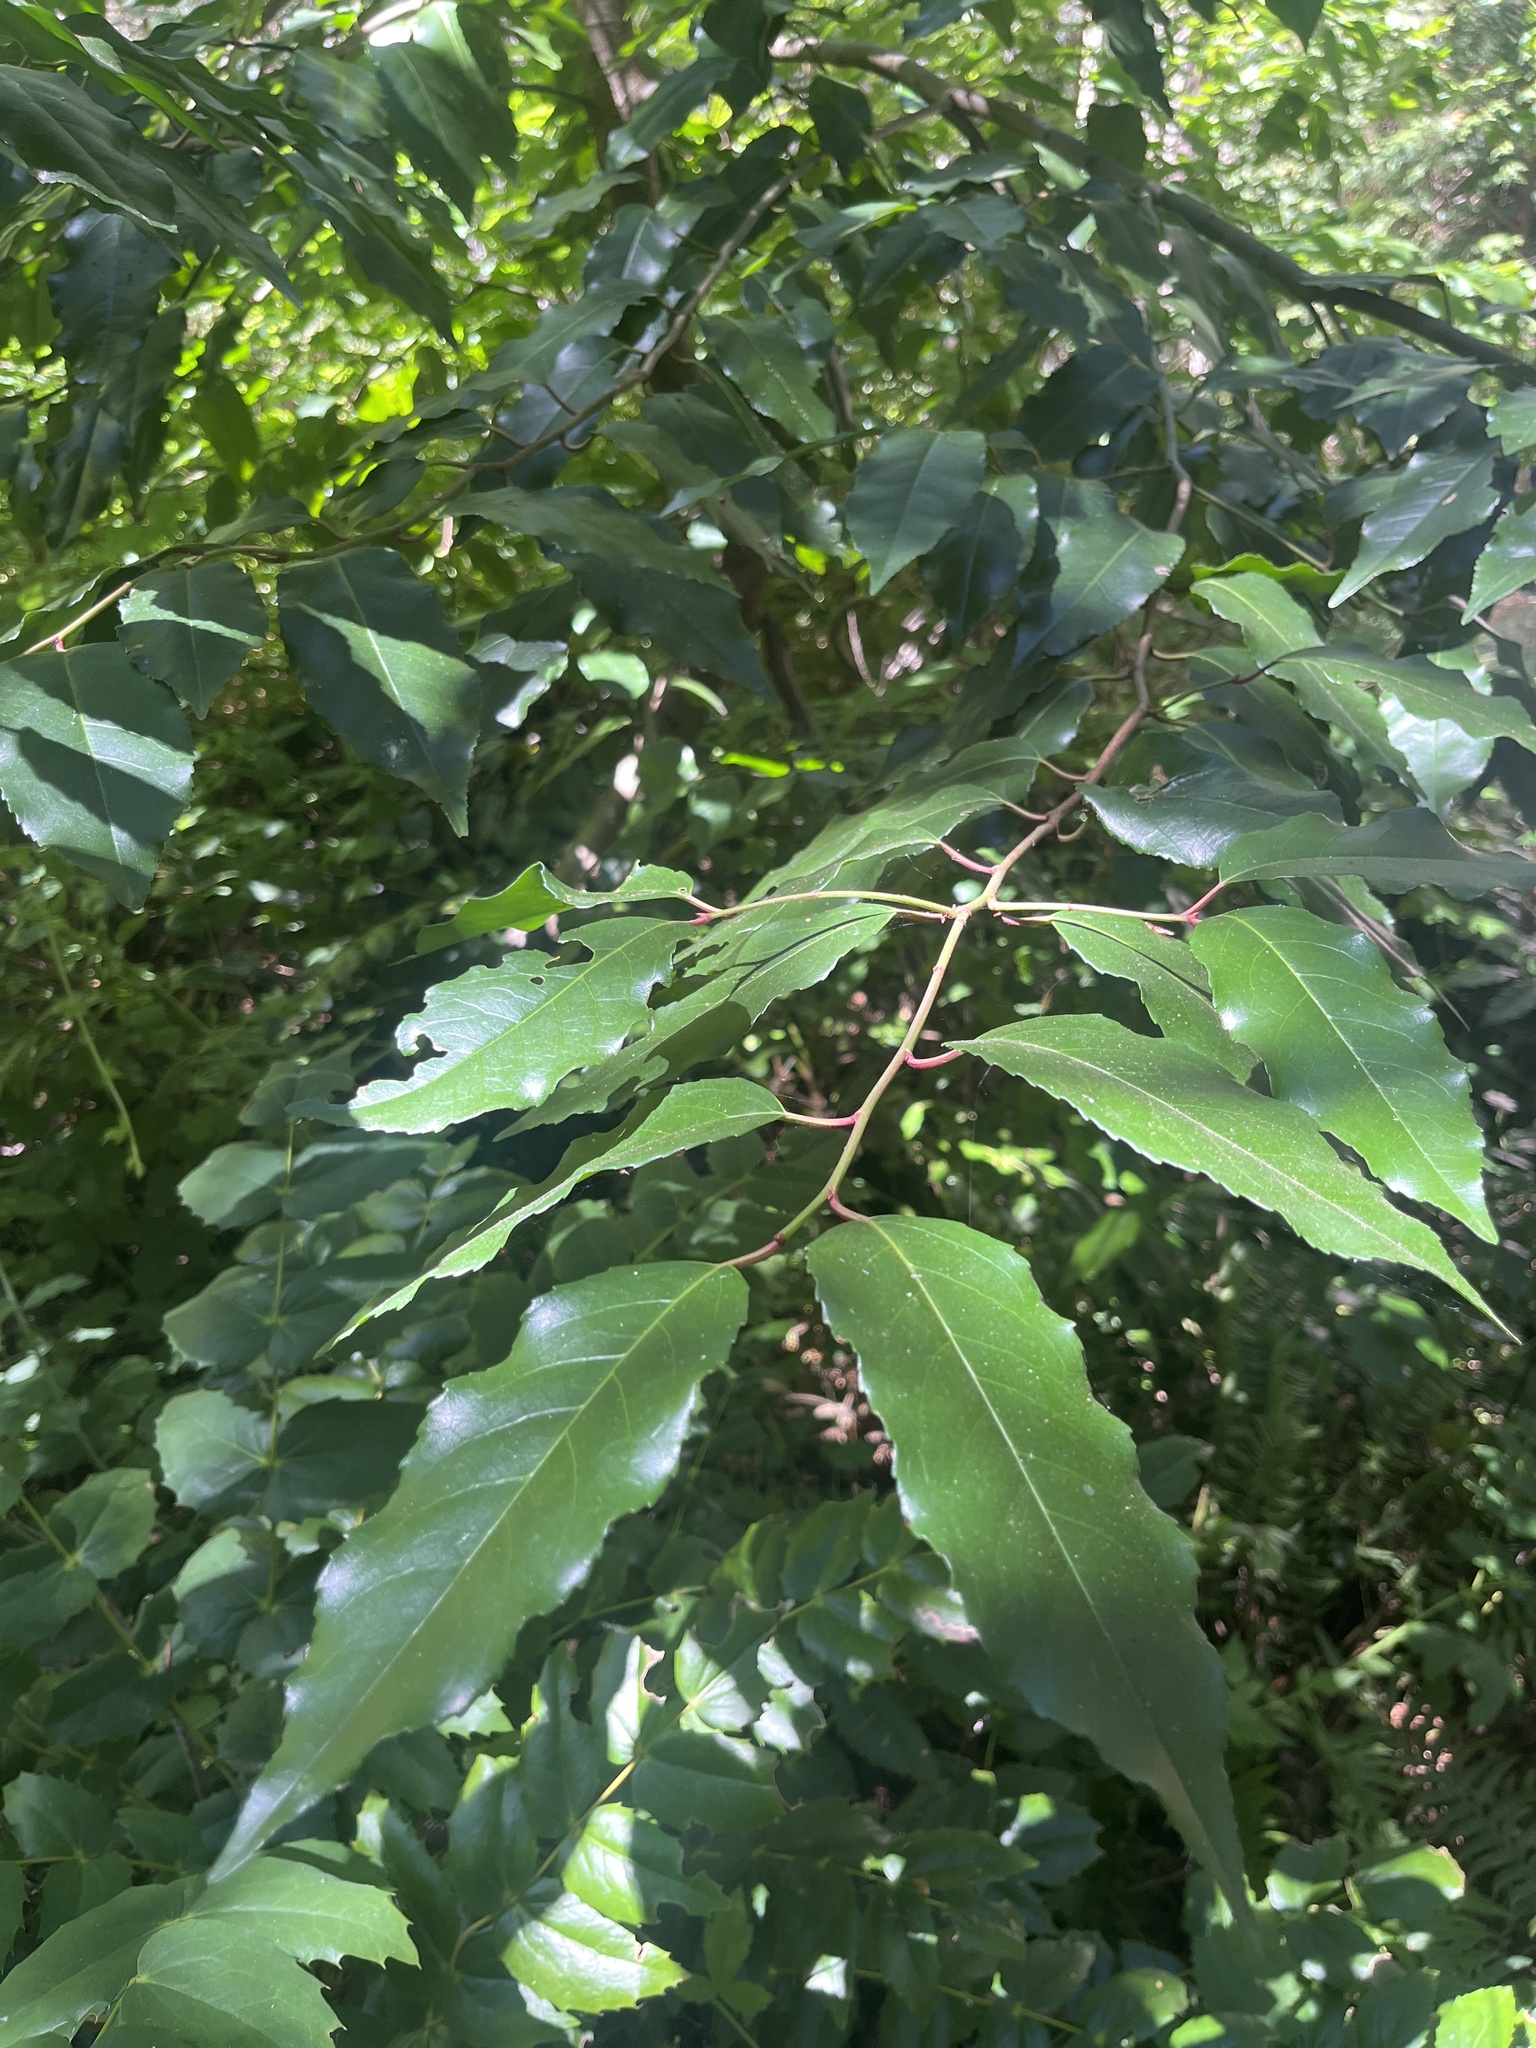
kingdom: Plantae
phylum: Tracheophyta
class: Magnoliopsida
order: Rosales
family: Rosaceae
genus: Prunus
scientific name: Prunus lusitanica
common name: Portugal laurel
